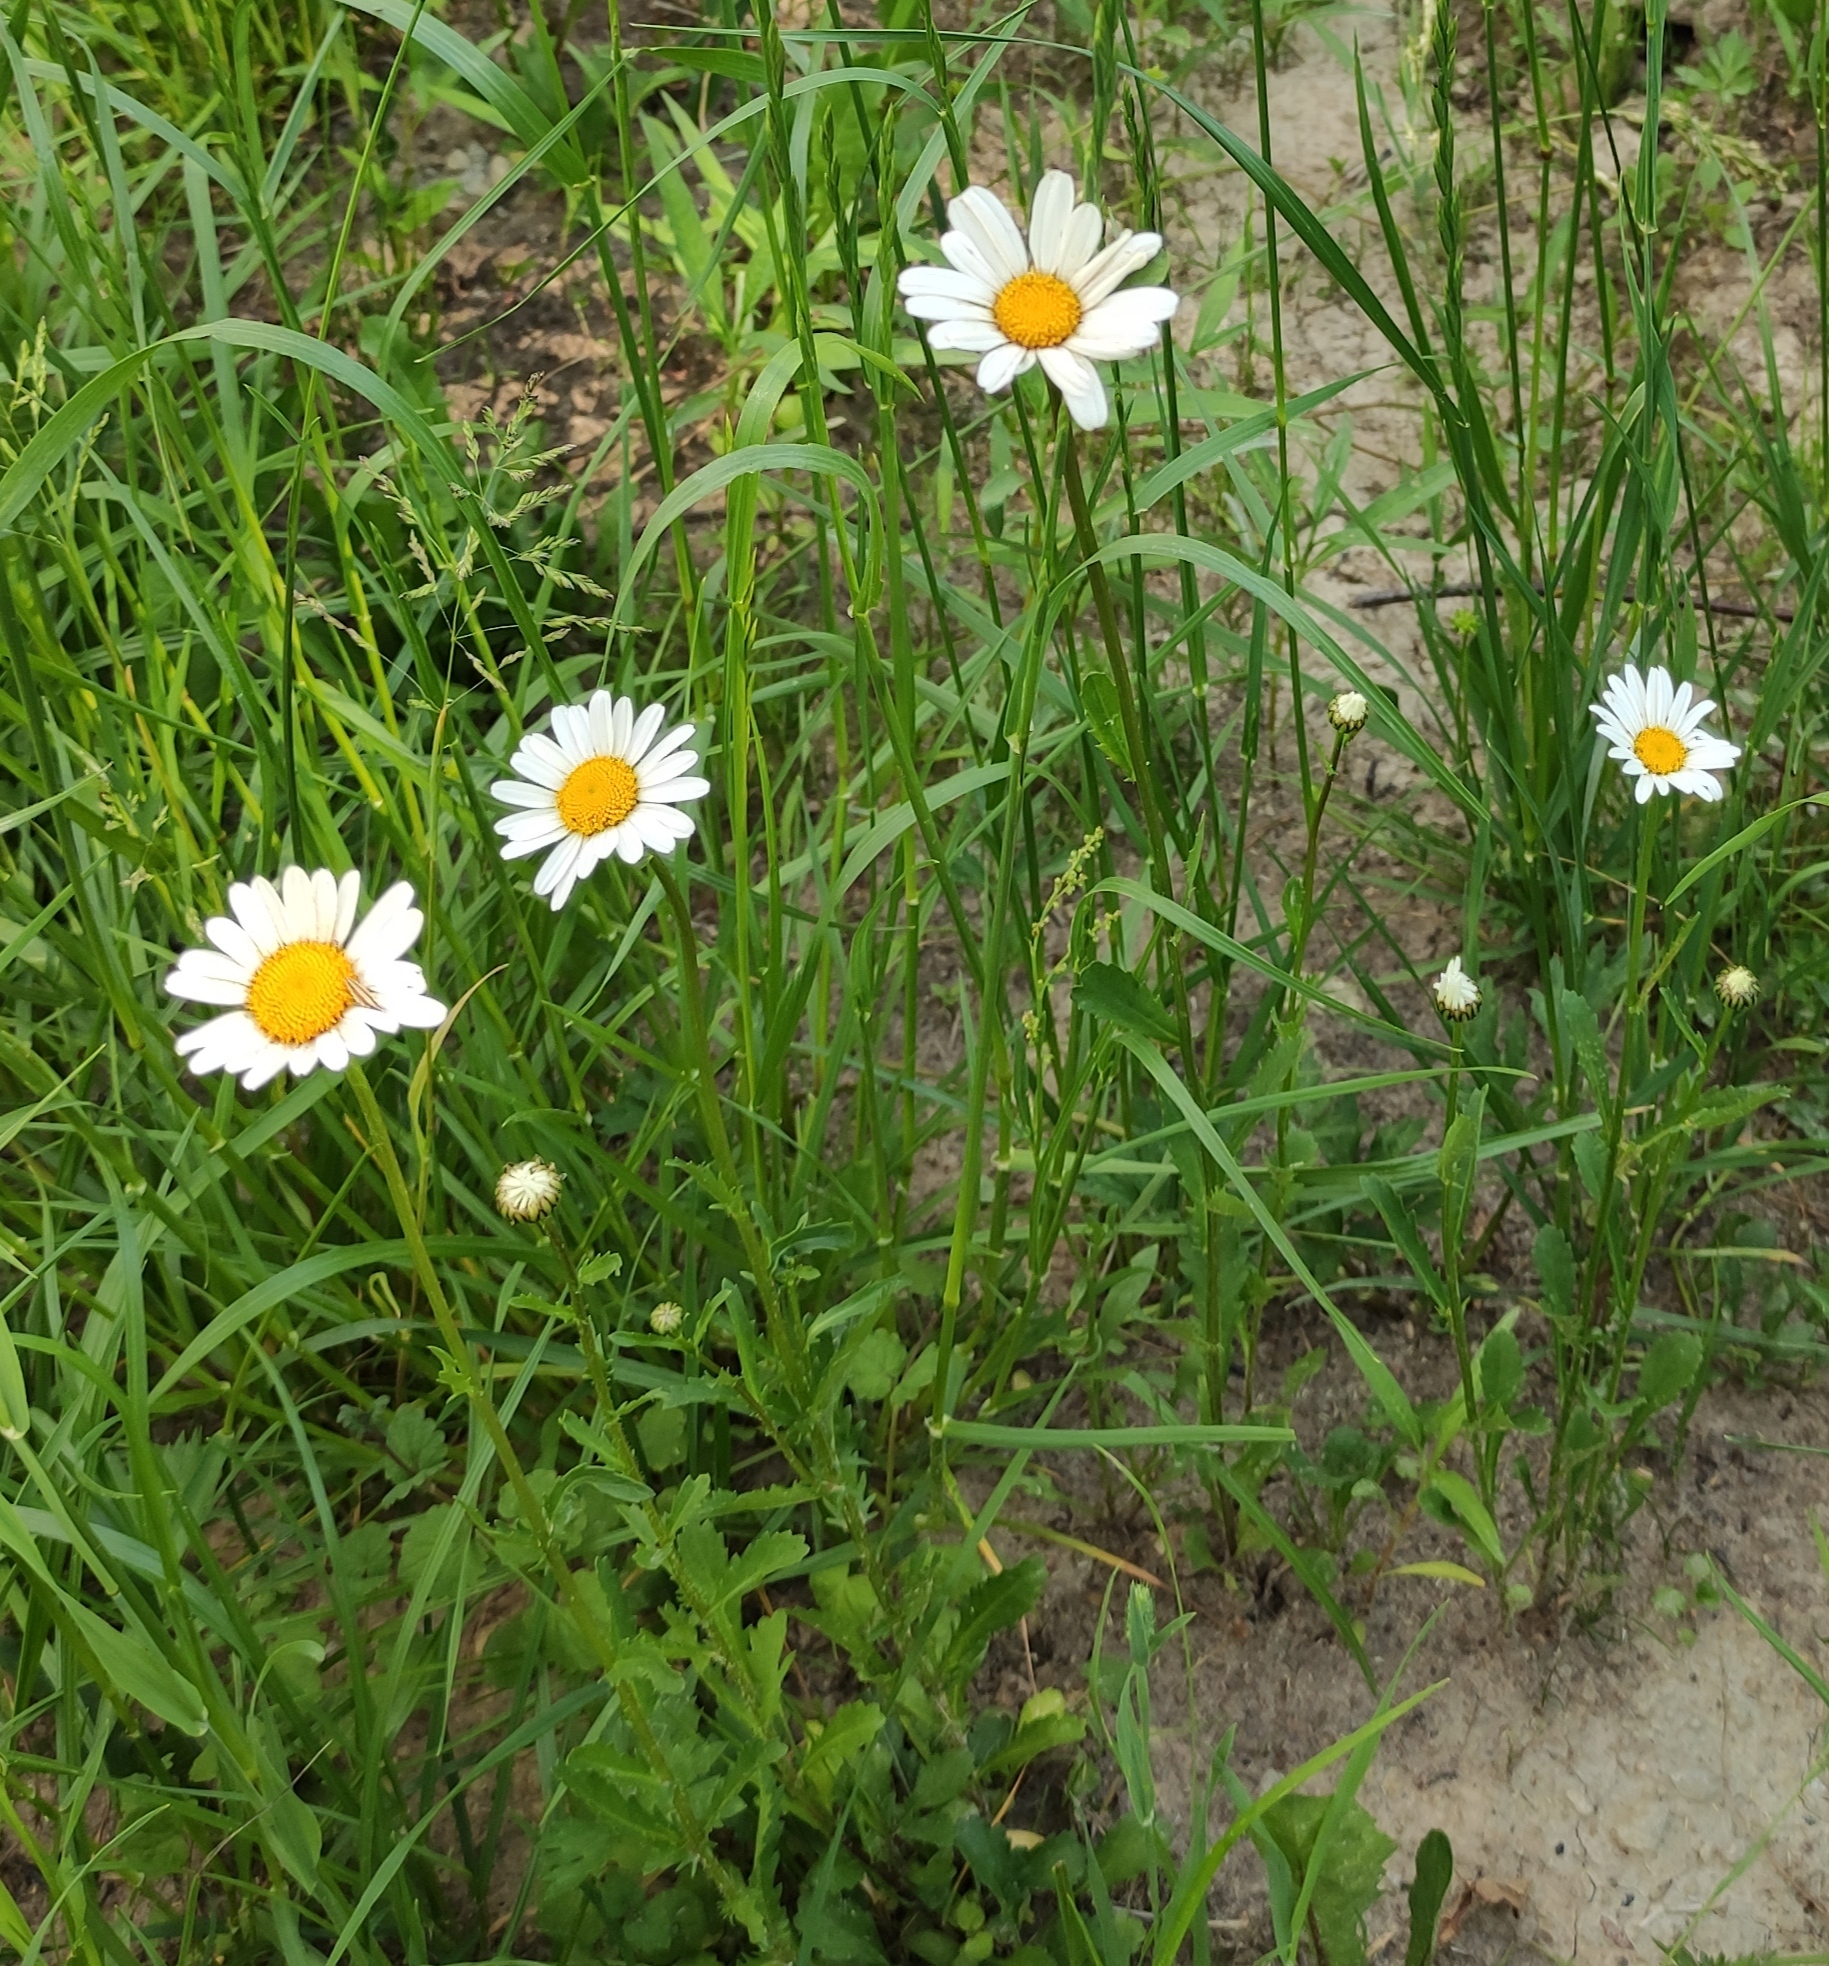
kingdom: Plantae
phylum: Tracheophyta
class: Magnoliopsida
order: Asterales
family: Asteraceae
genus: Leucanthemum
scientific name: Leucanthemum vulgare
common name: Oxeye daisy
